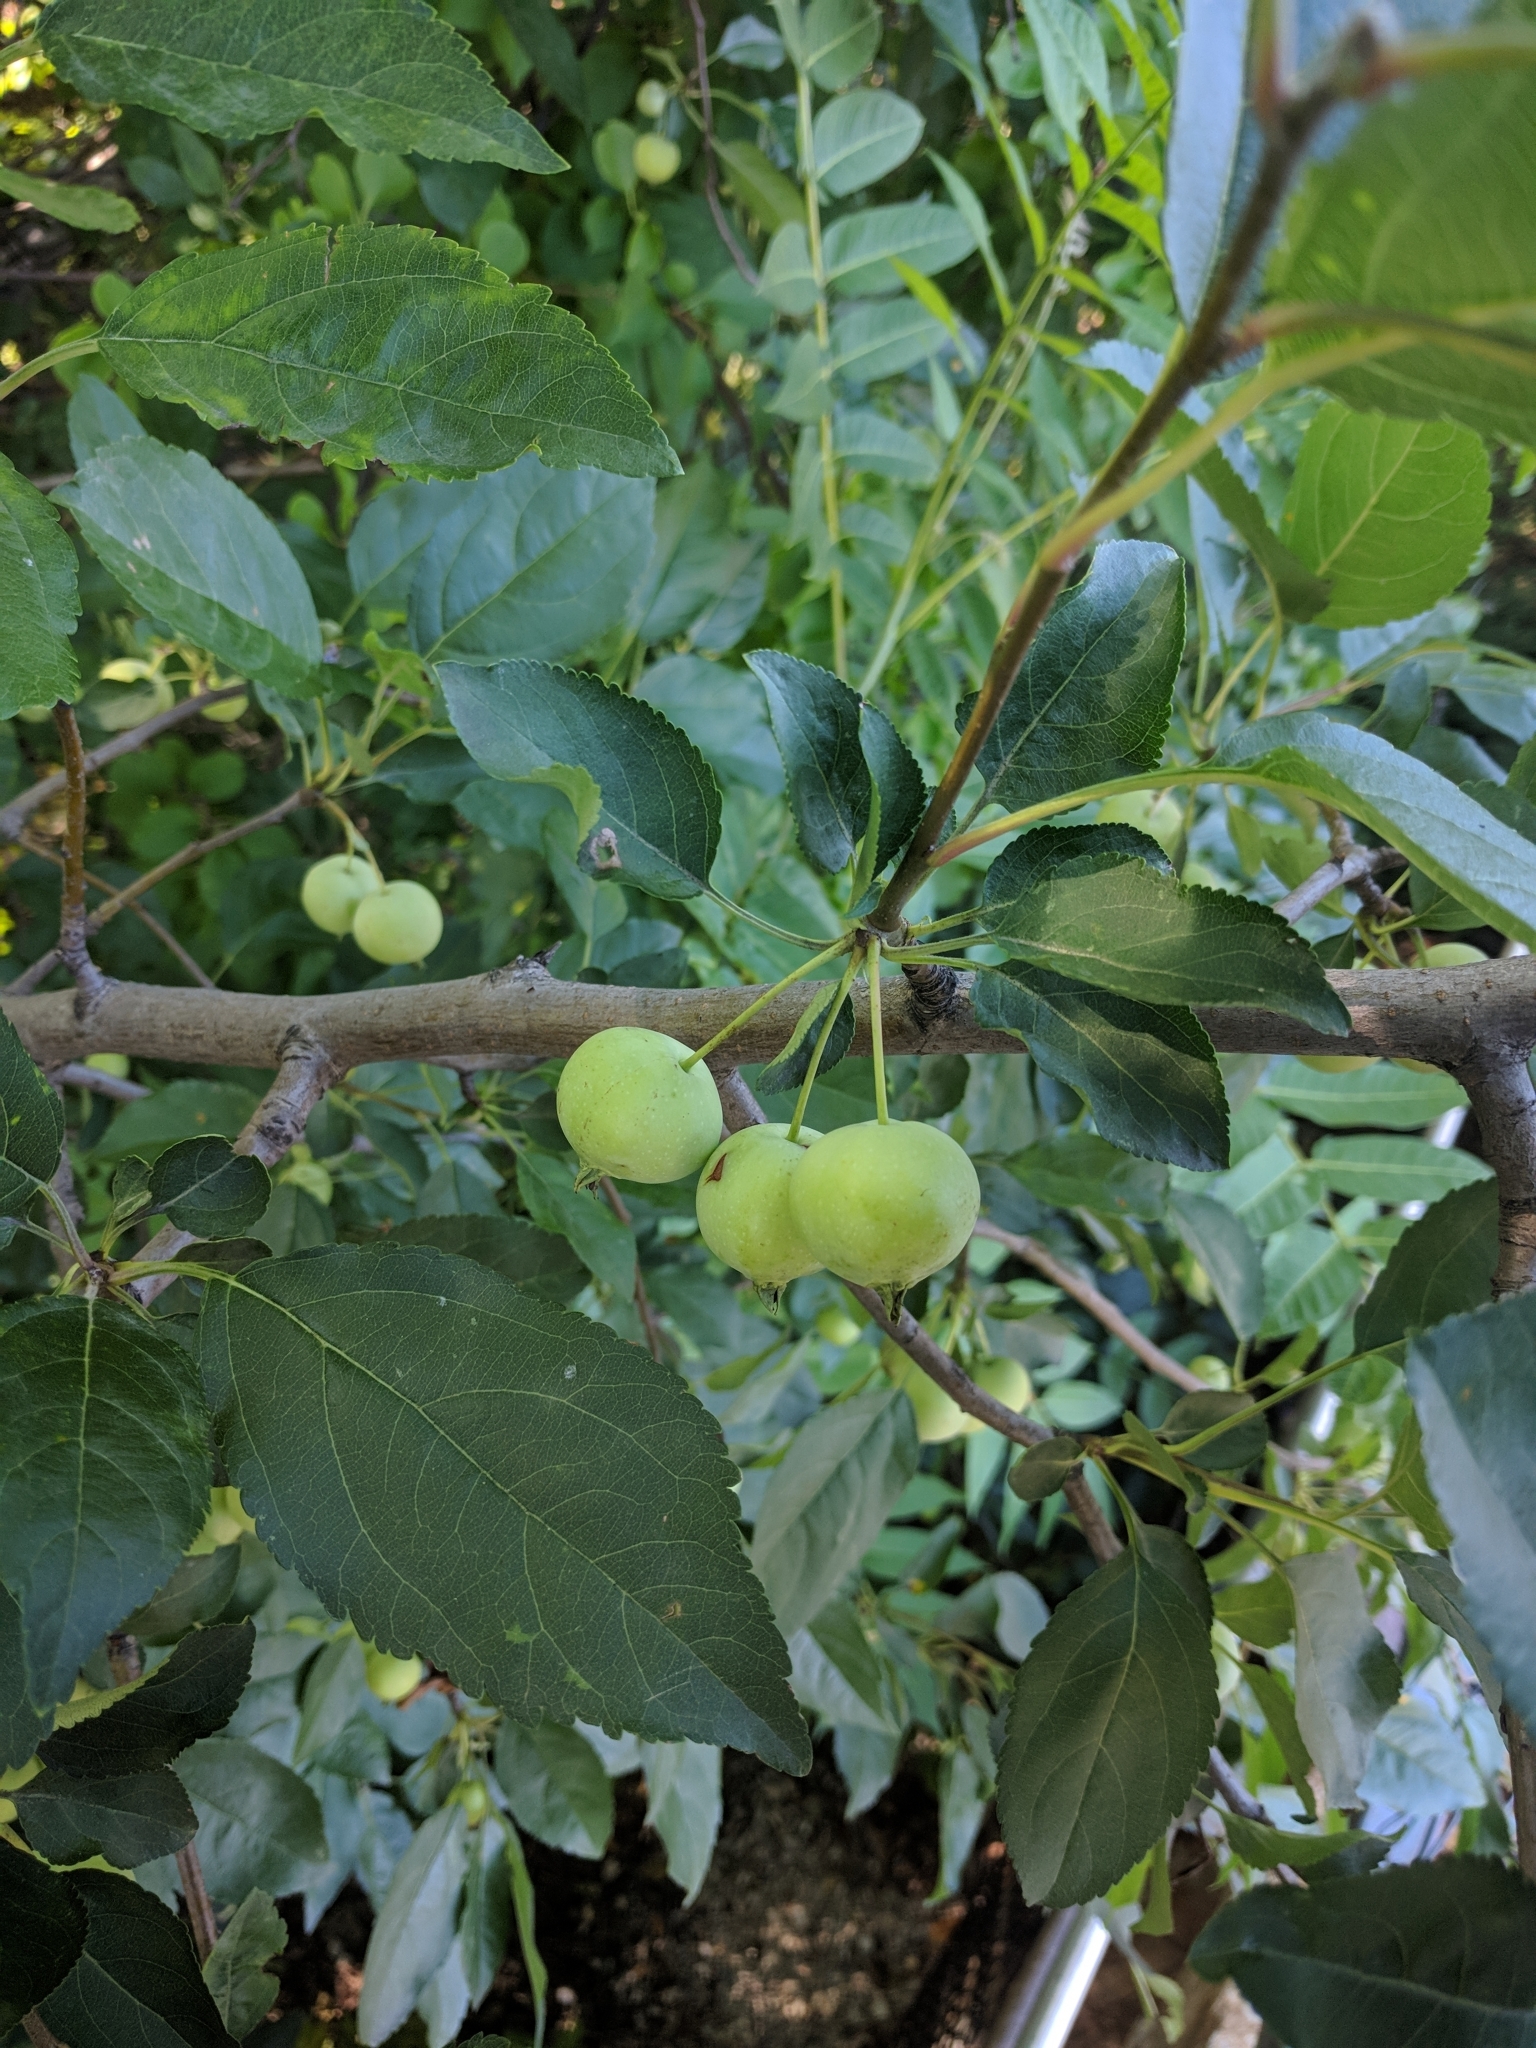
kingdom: Plantae
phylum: Tracheophyta
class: Magnoliopsida
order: Rosales
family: Rosaceae
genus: Malus
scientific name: Malus
